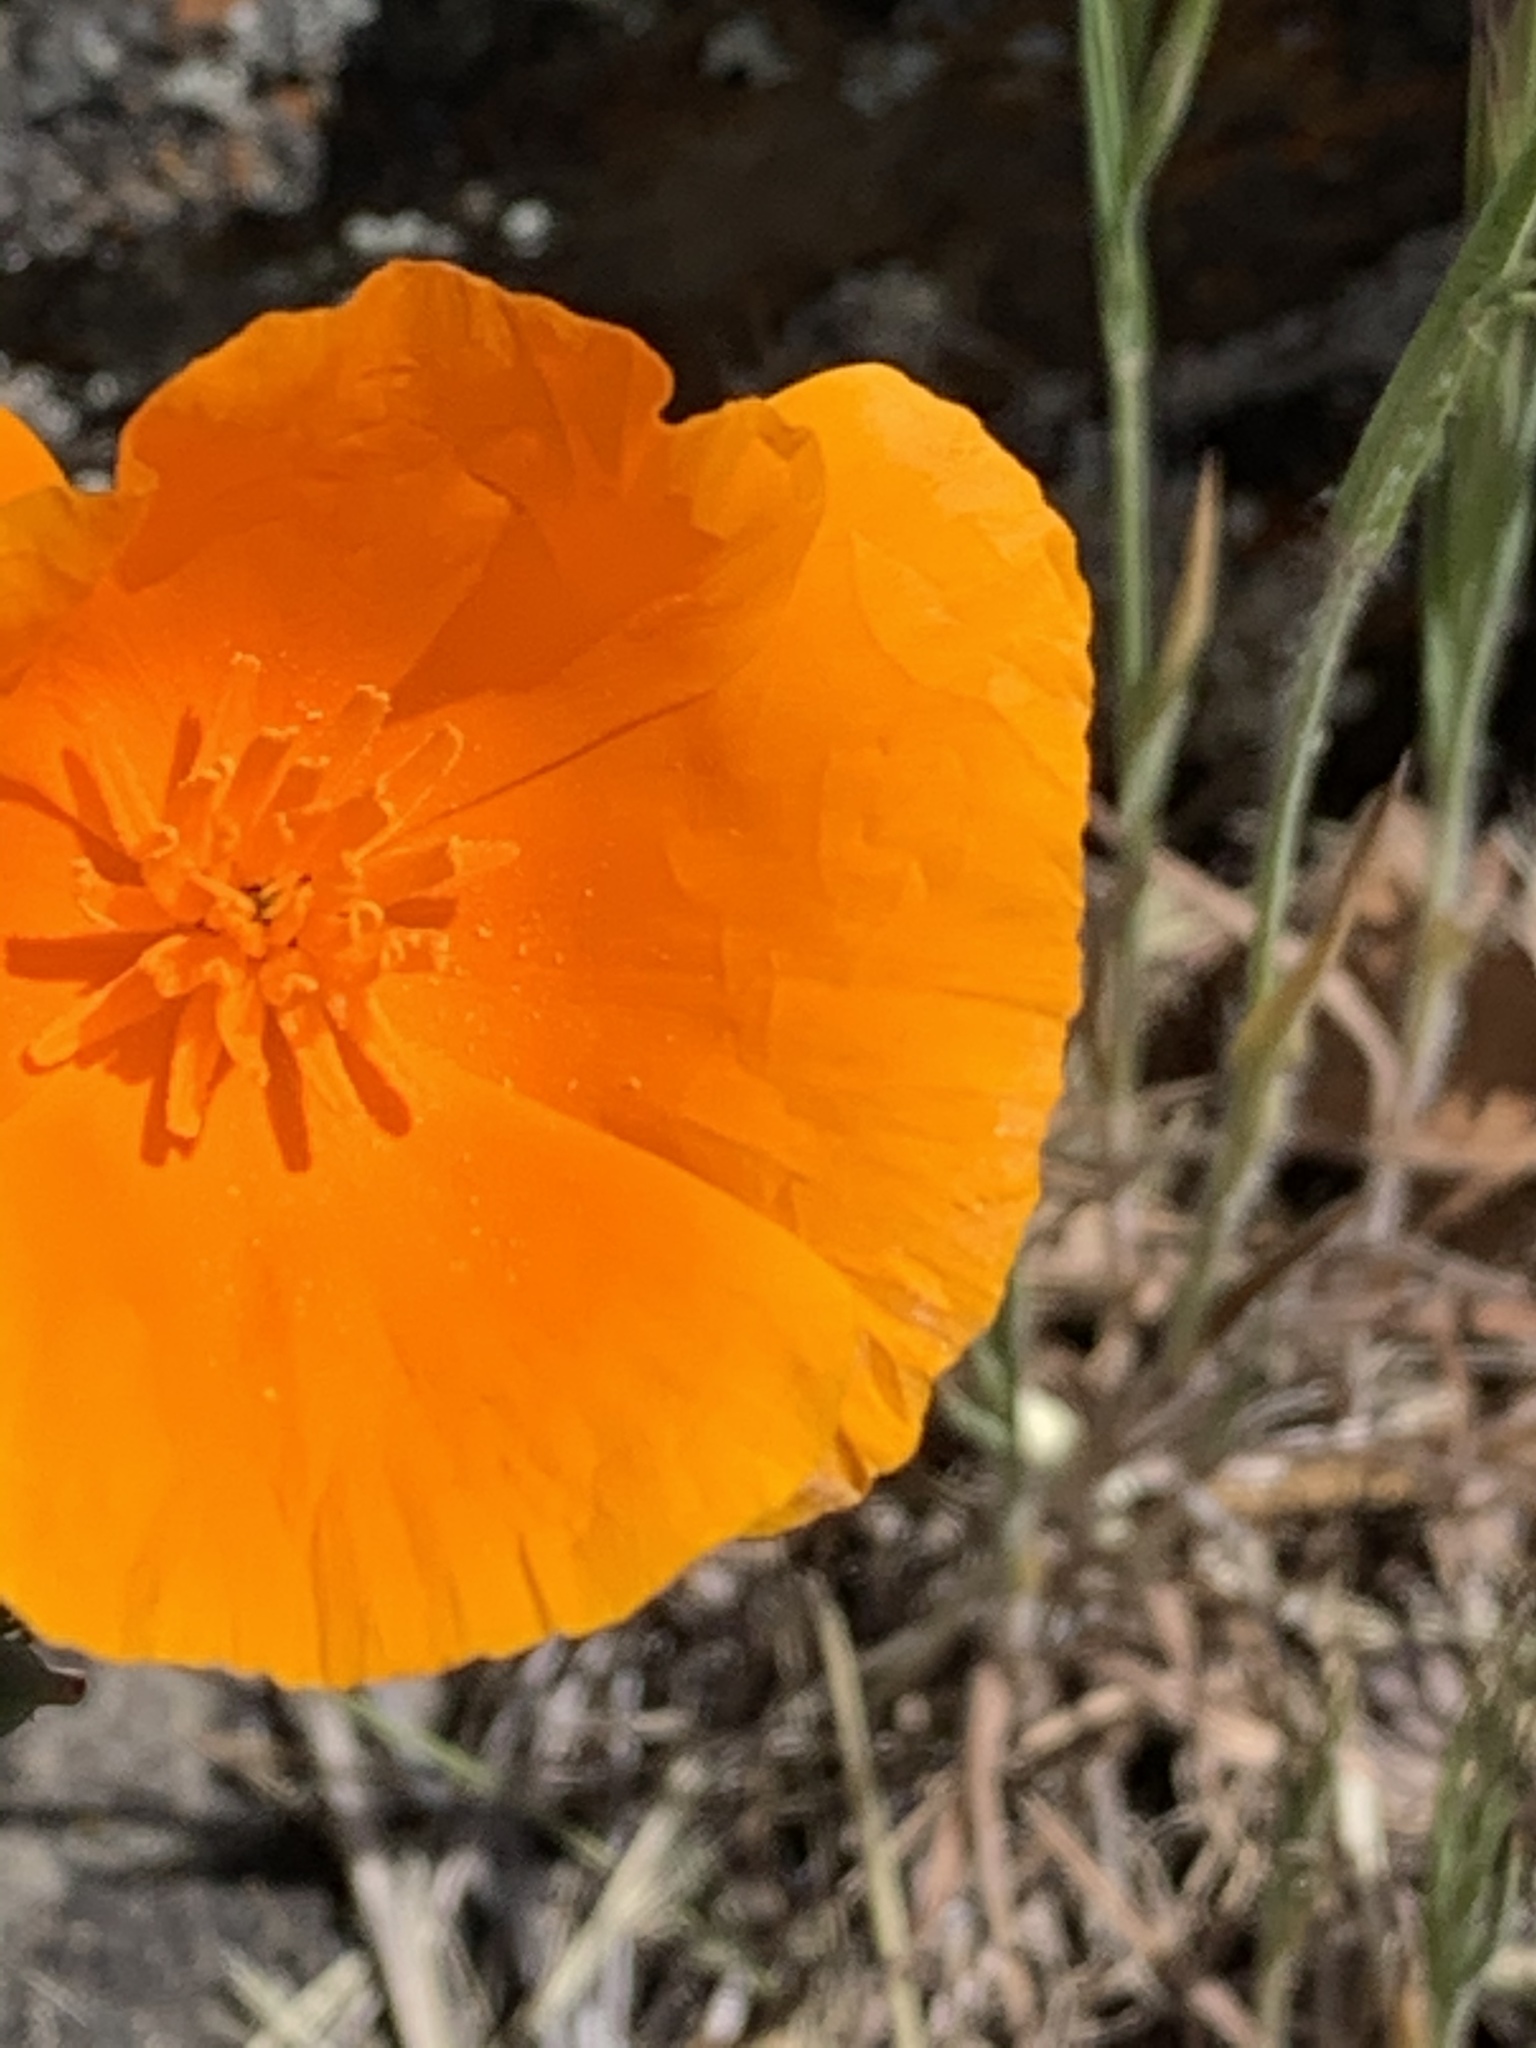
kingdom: Plantae
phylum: Tracheophyta
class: Magnoliopsida
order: Ranunculales
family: Papaveraceae
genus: Eschscholzia
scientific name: Eschscholzia californica
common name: California poppy
